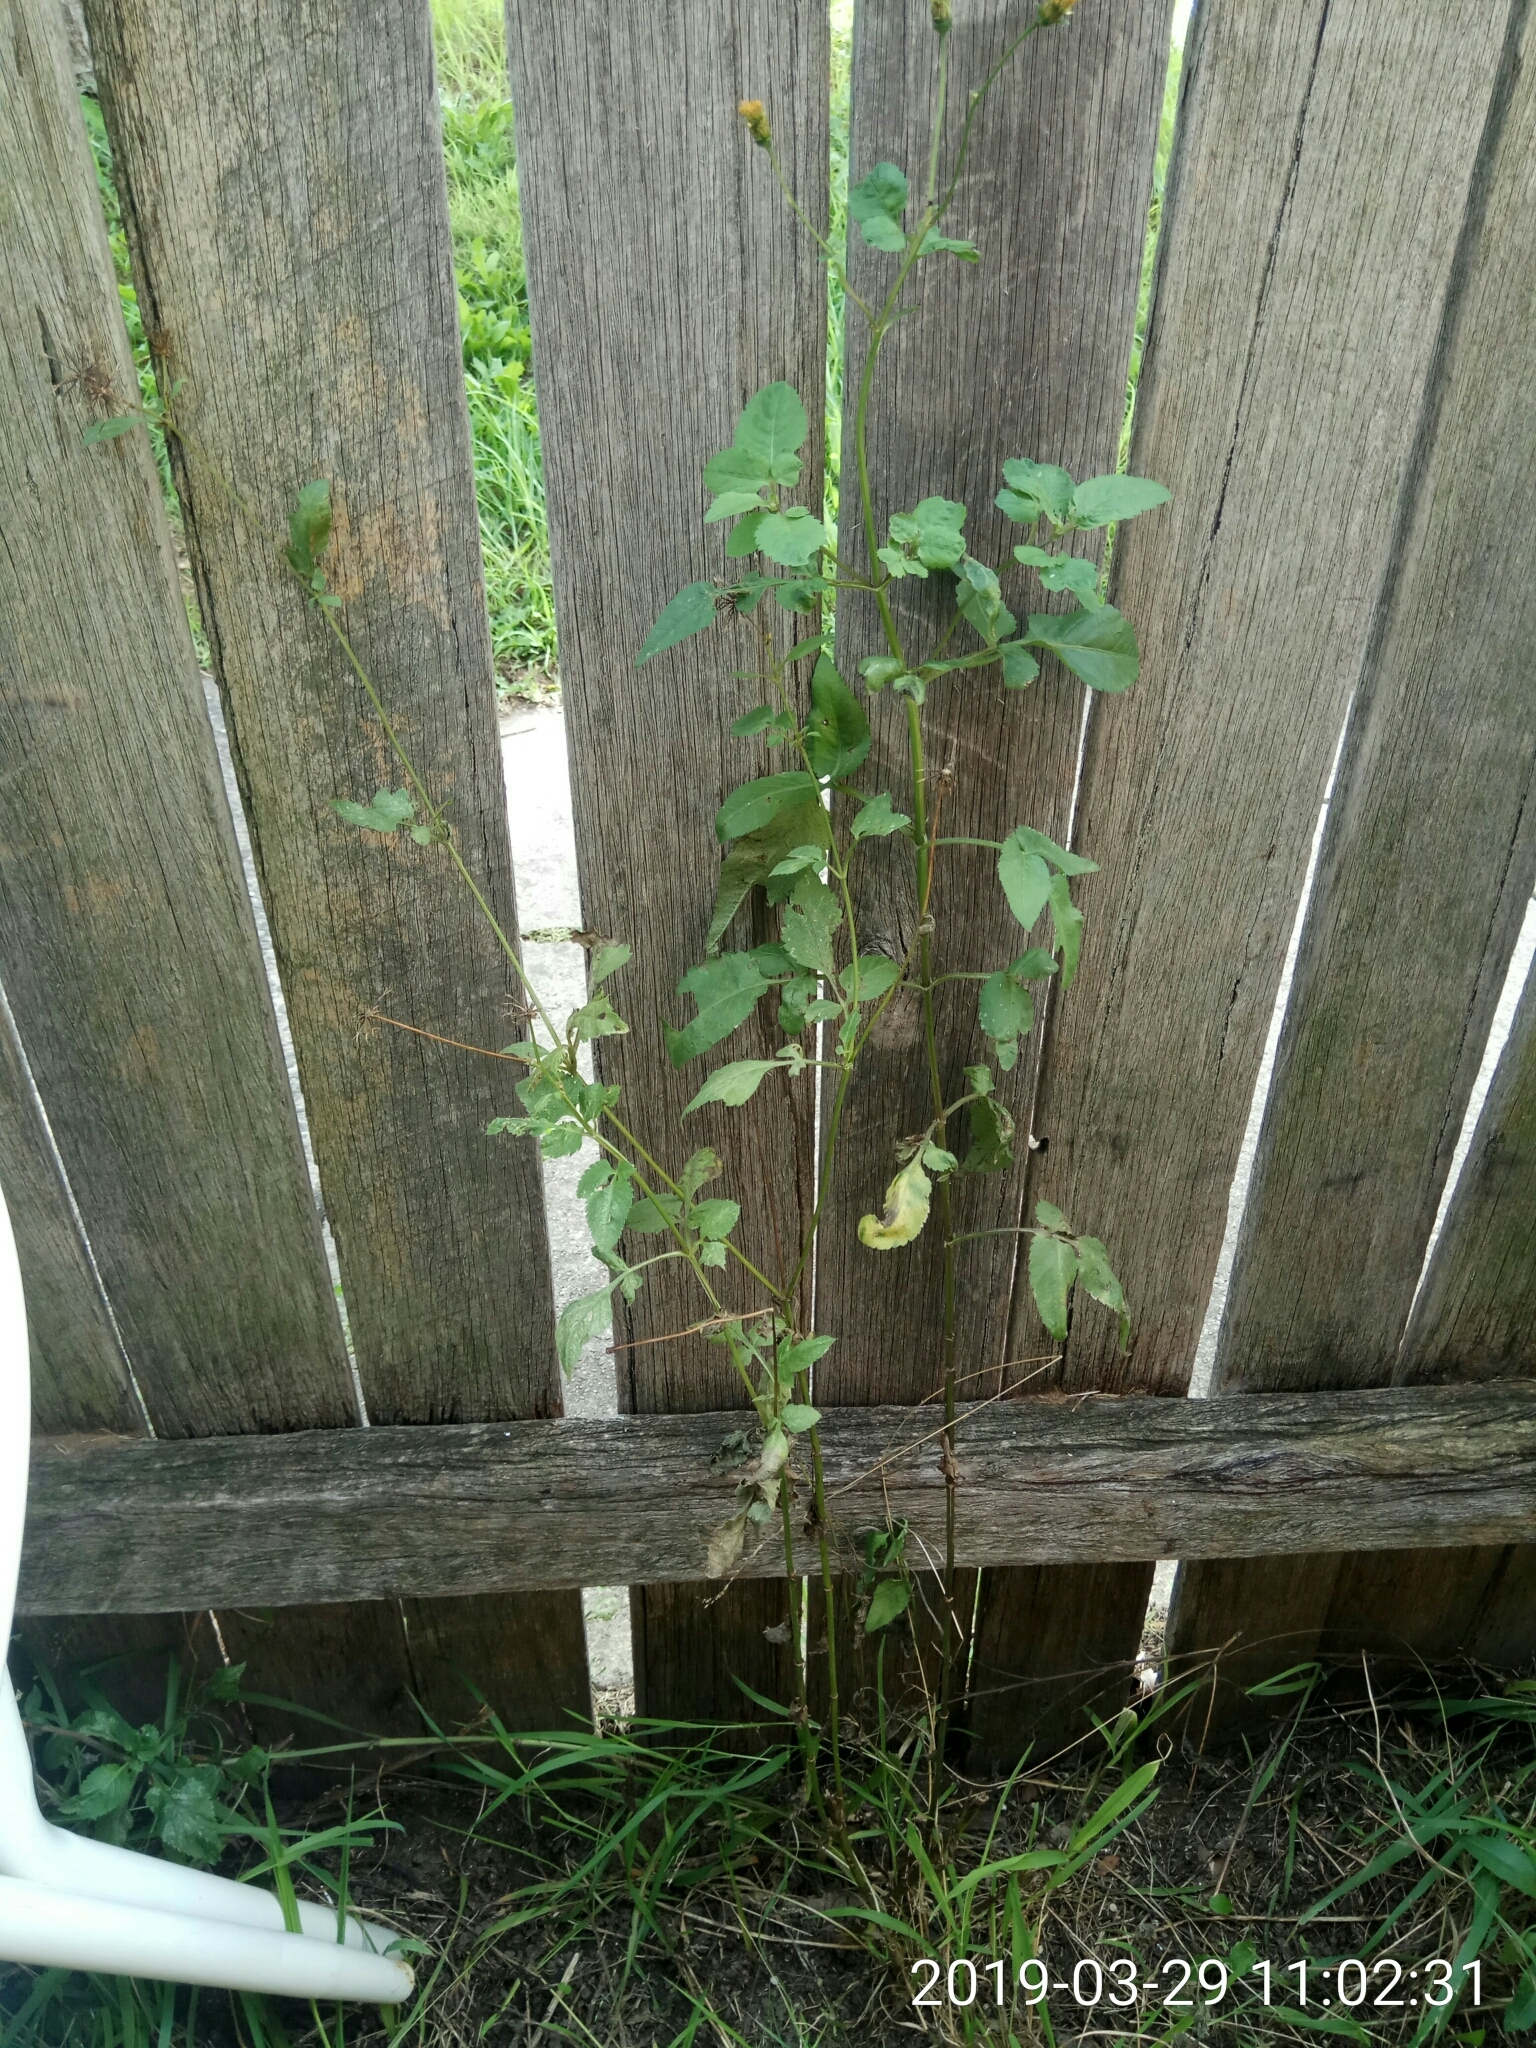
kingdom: Plantae
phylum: Tracheophyta
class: Magnoliopsida
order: Asterales
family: Asteraceae
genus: Bidens
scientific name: Bidens pilosa
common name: Black-jack
